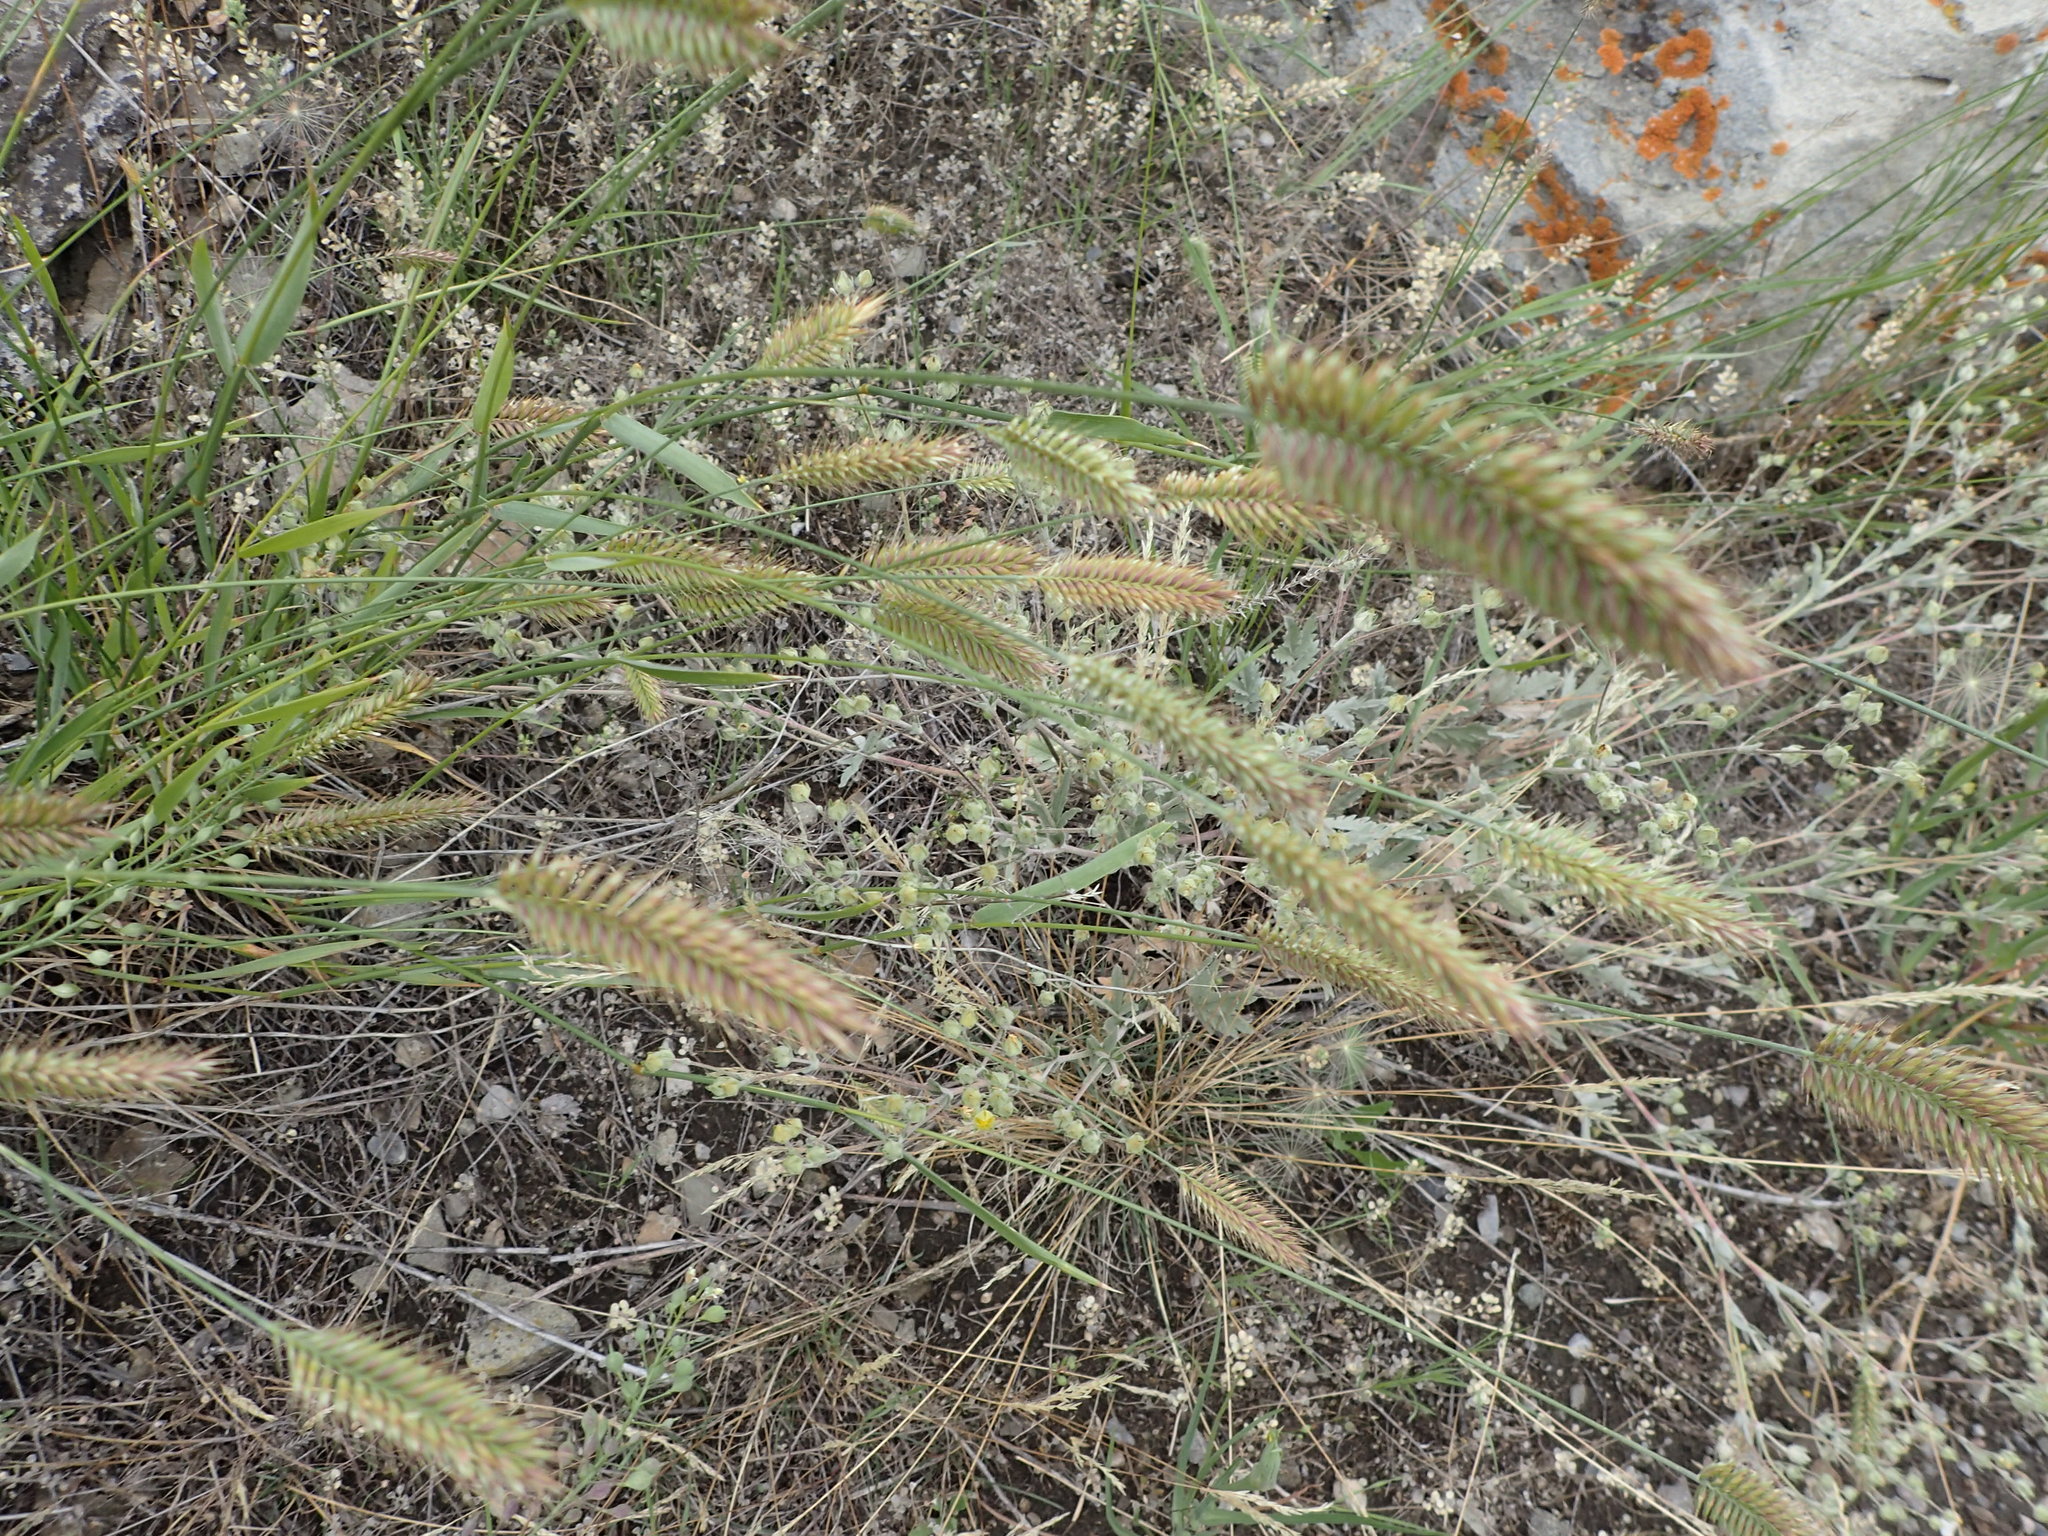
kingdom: Plantae
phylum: Tracheophyta
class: Liliopsida
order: Poales
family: Poaceae
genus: Agropyron
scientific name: Agropyron cristatum
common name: Crested wheatgrass
